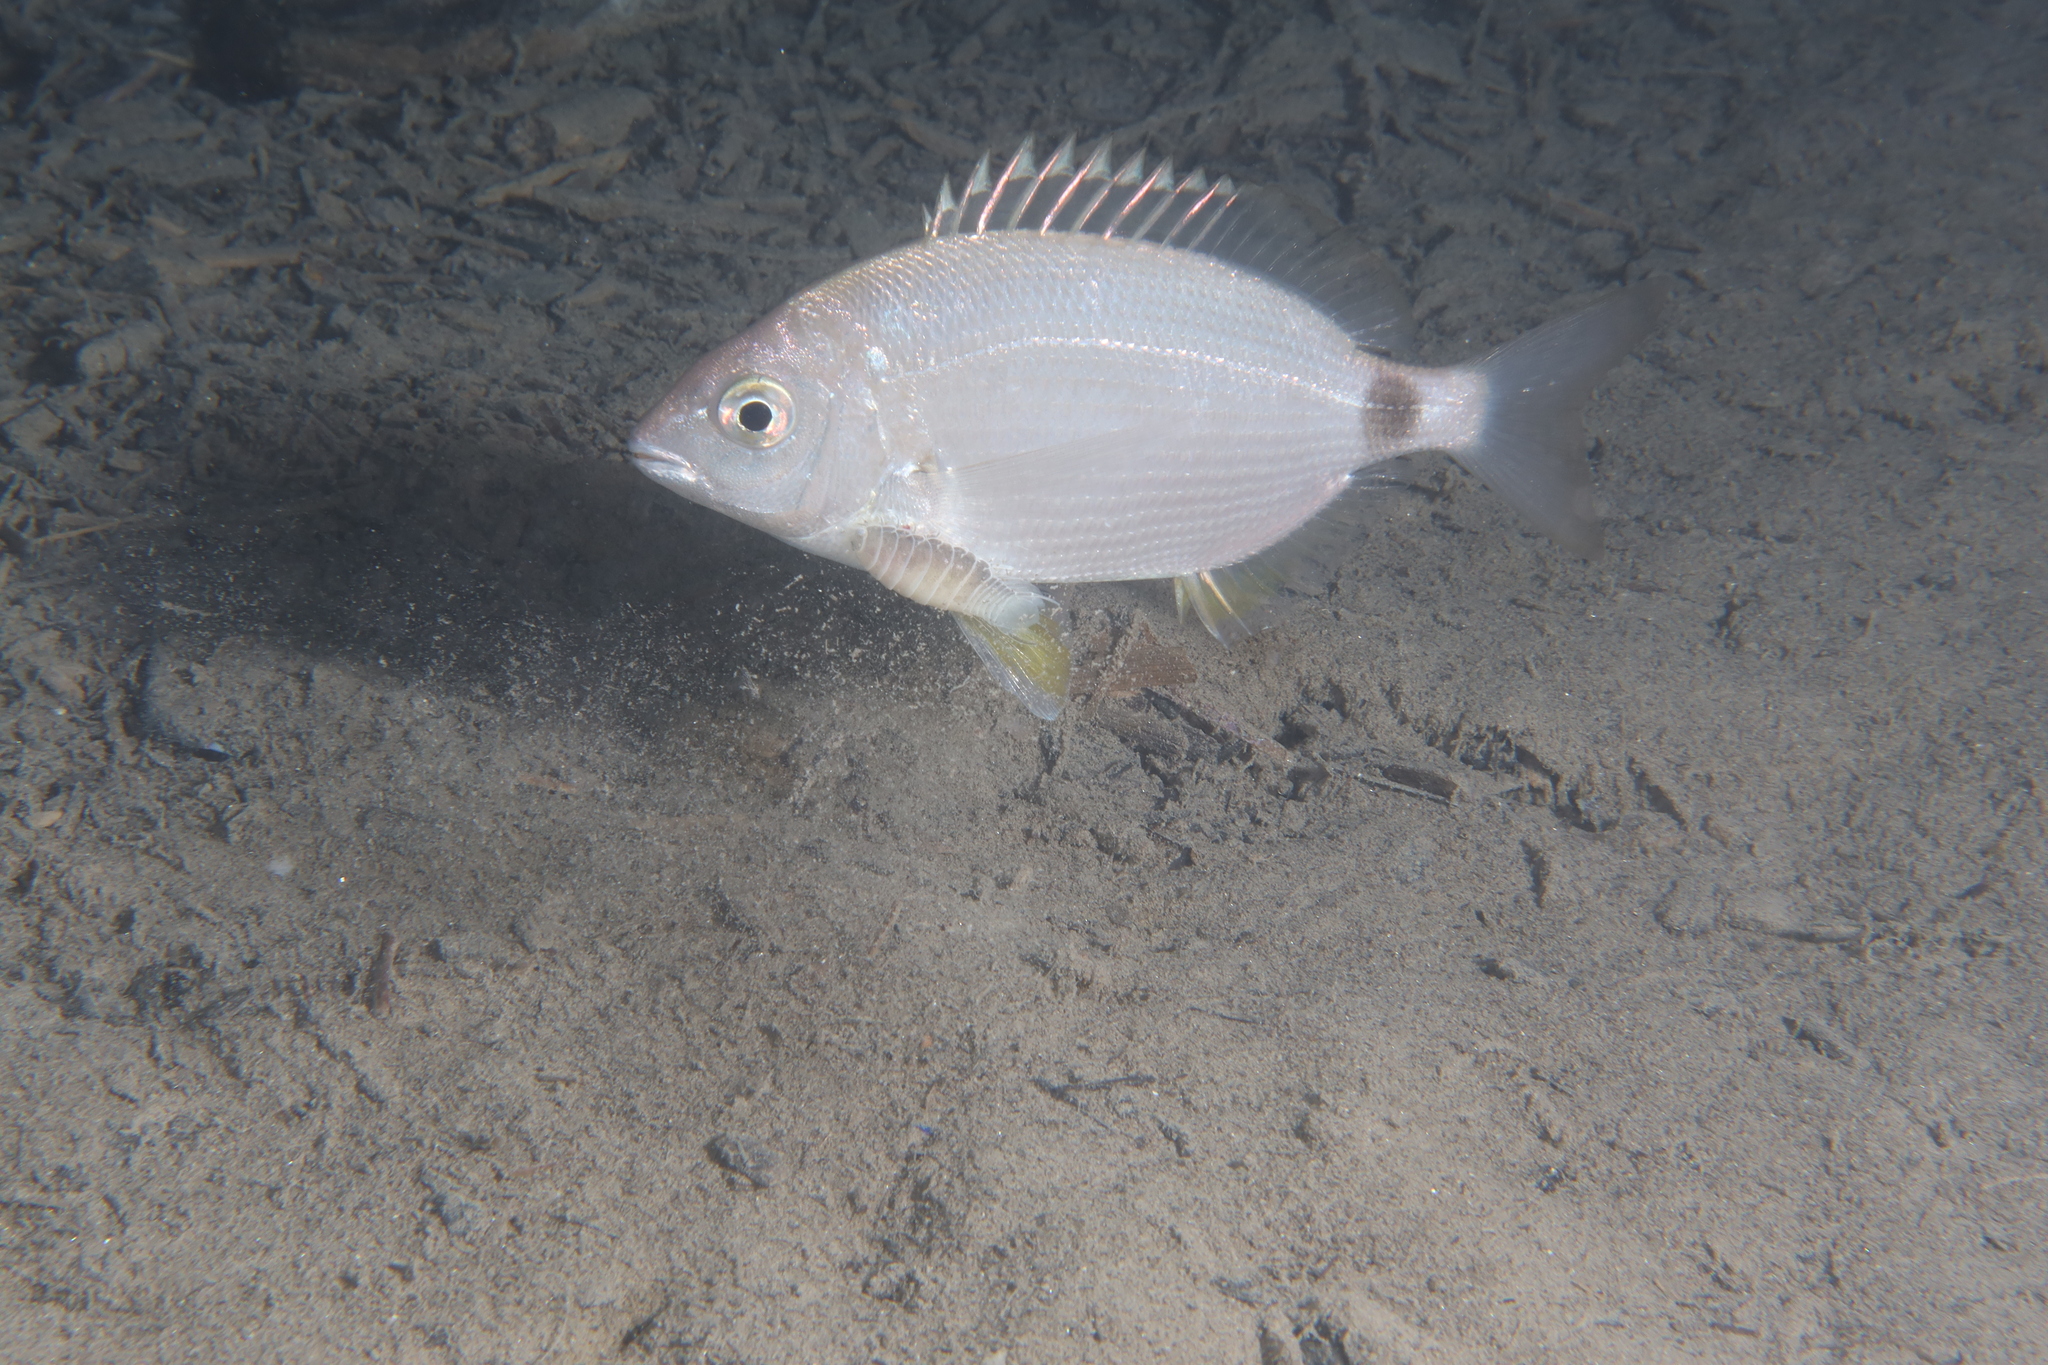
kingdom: Animalia
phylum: Chordata
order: Perciformes
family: Sparidae
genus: Diplodus
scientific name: Diplodus annularis
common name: Annular seabream
